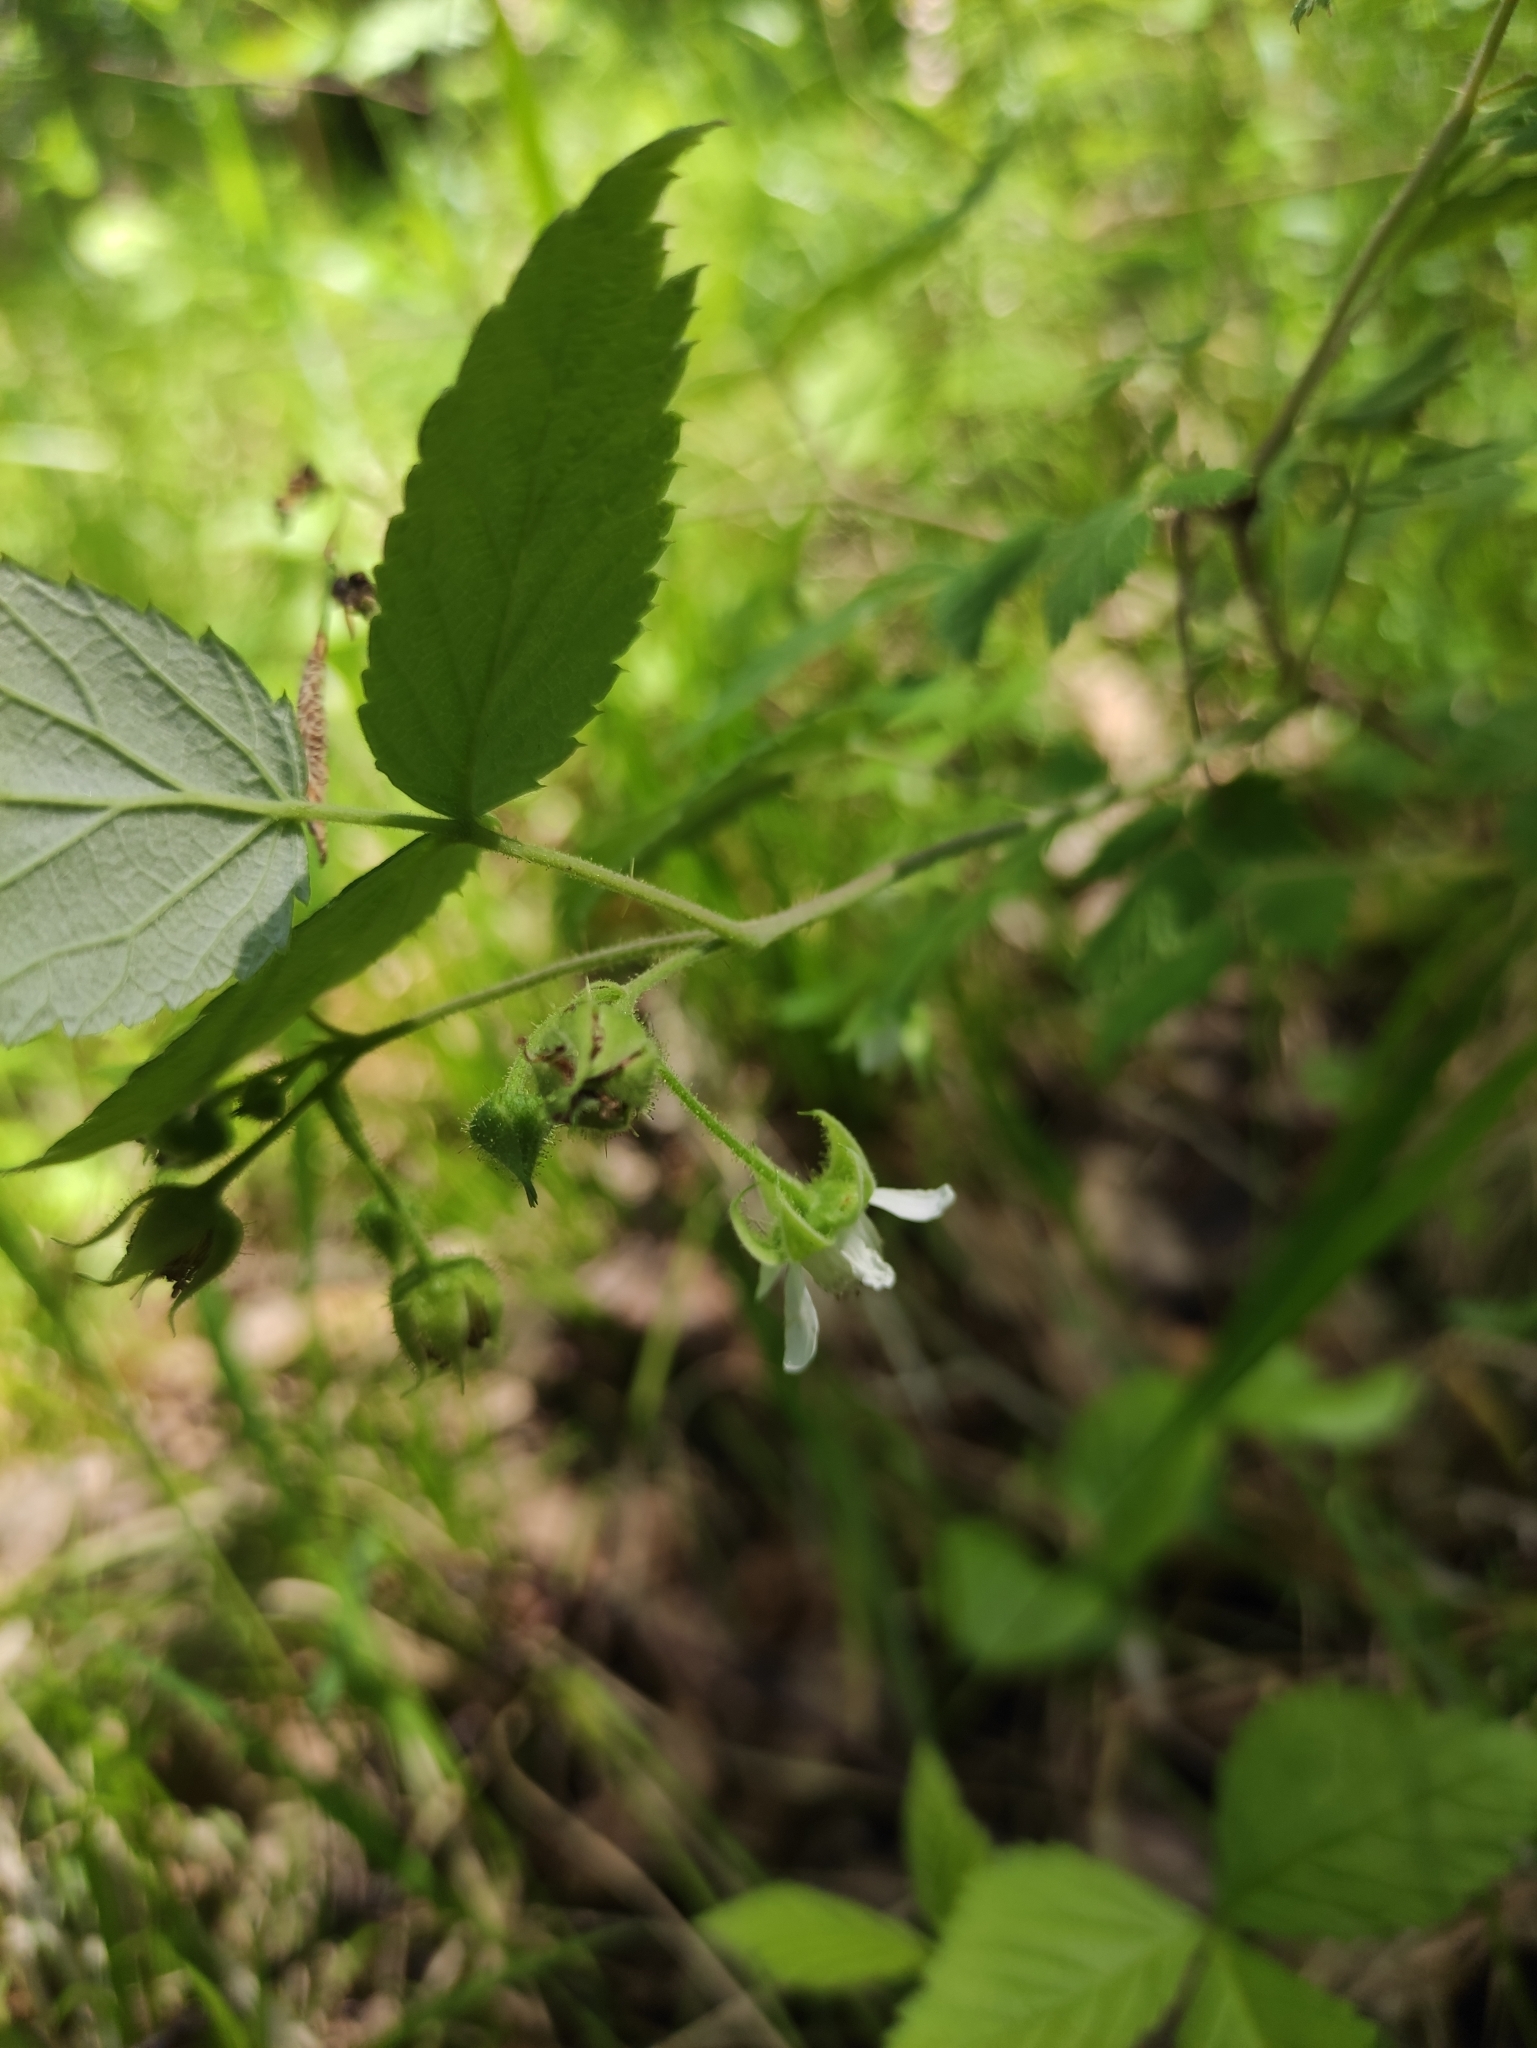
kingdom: Plantae
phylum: Tracheophyta
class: Magnoliopsida
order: Rosales
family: Rosaceae
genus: Rubus
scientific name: Rubus sachalinensis
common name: Red raspberry
